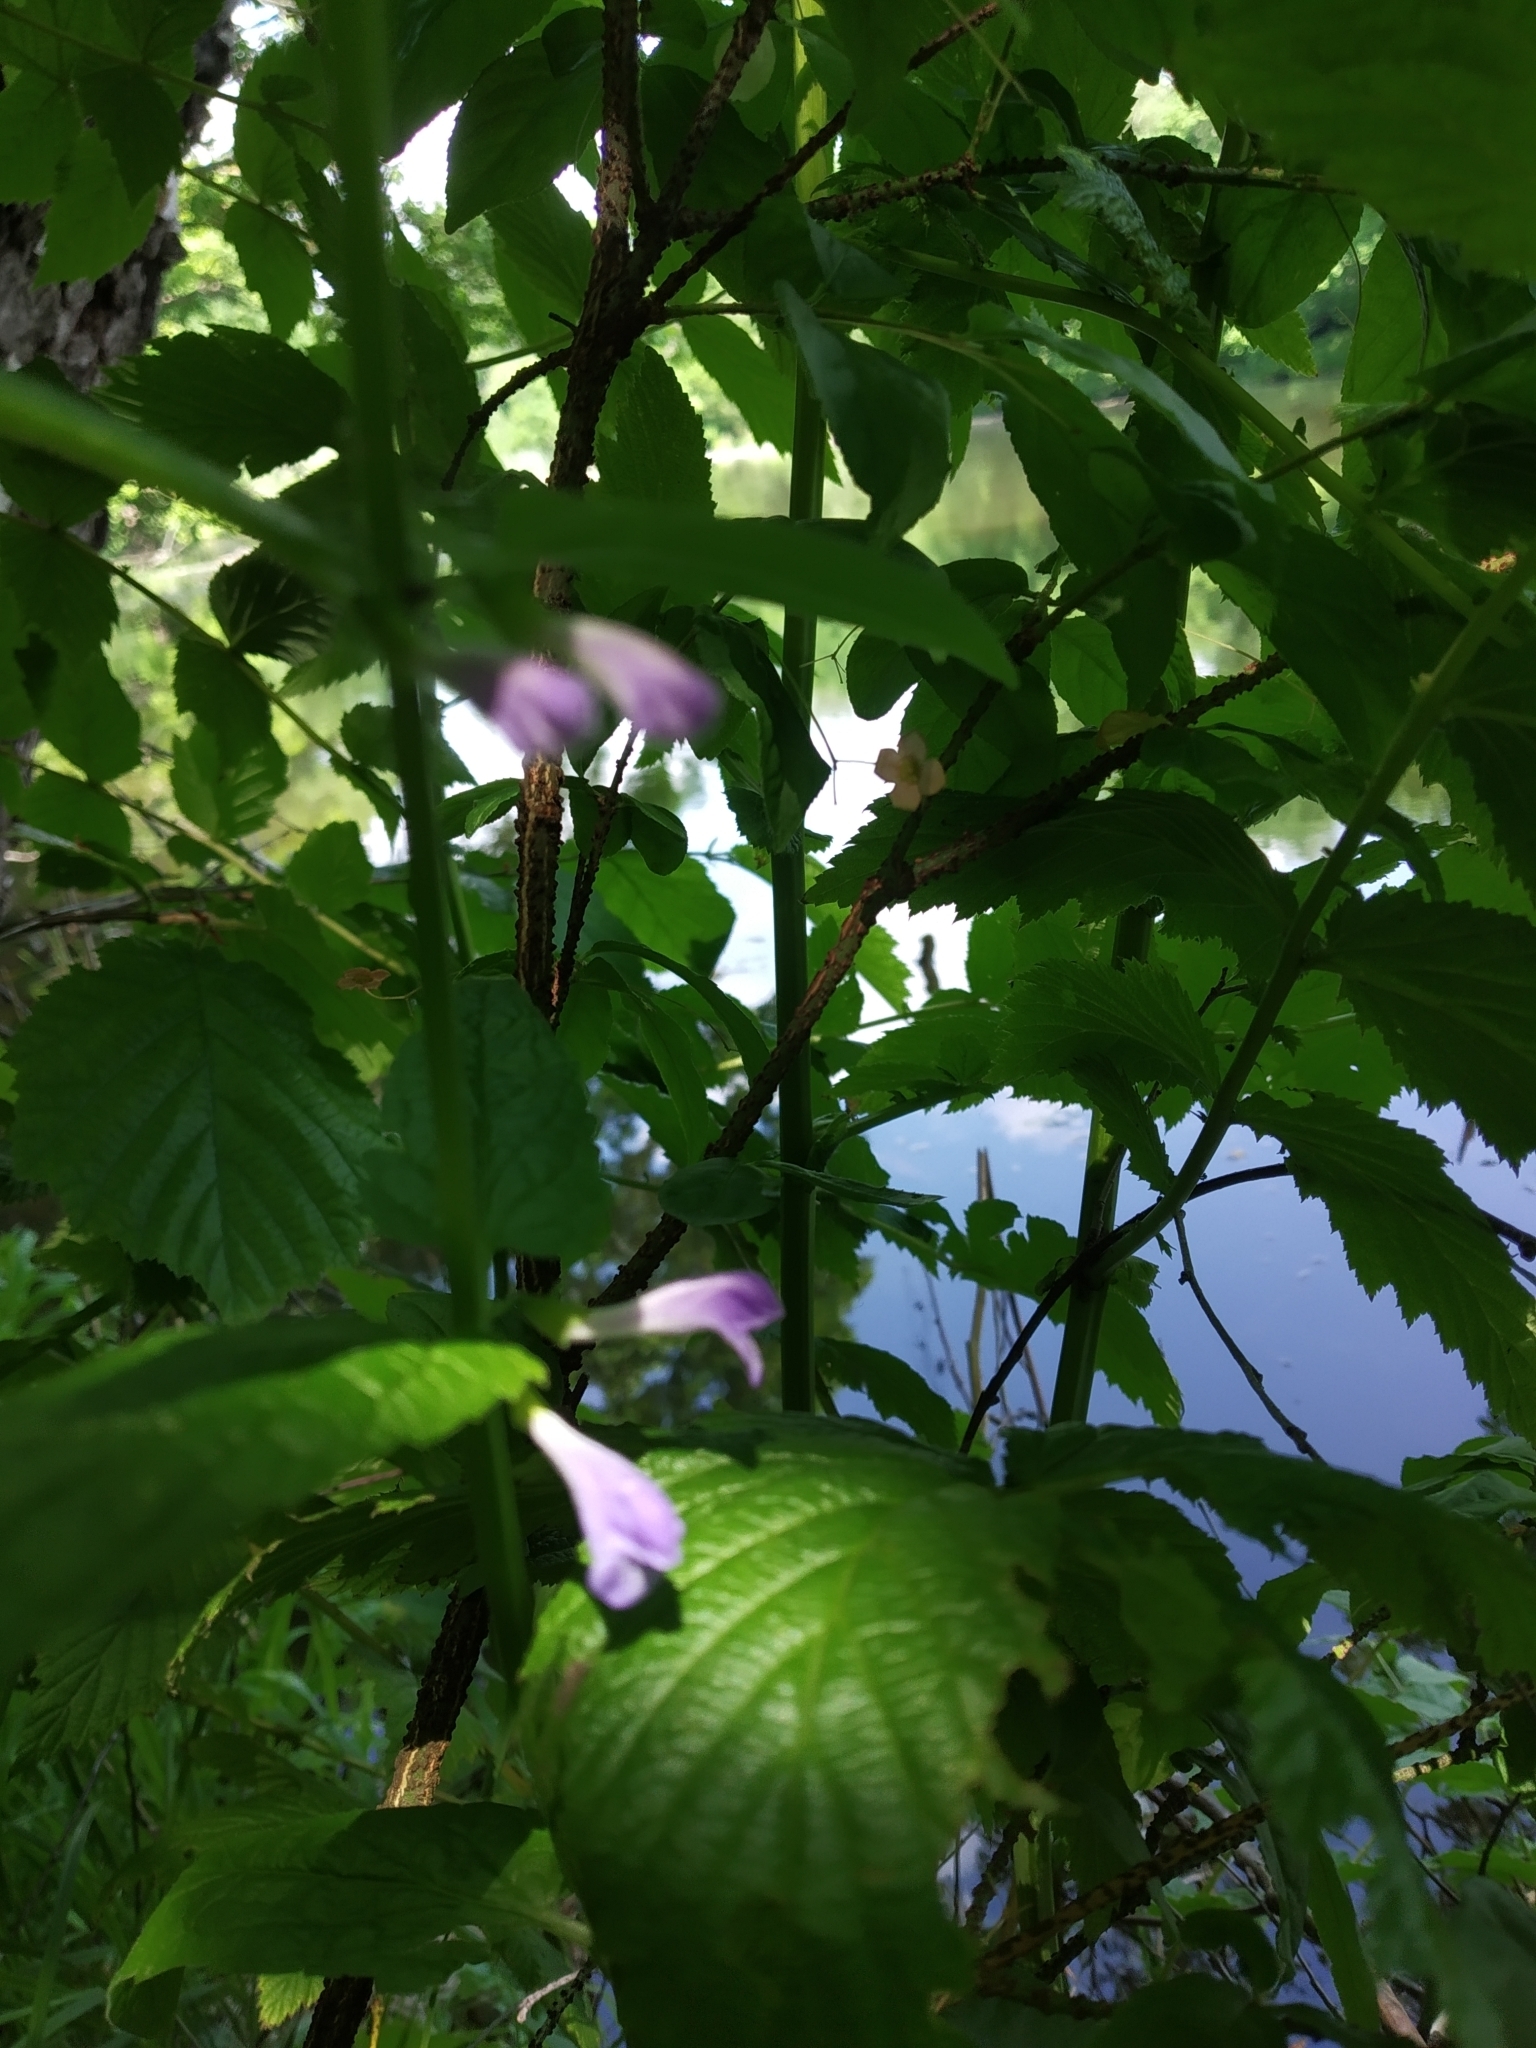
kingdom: Plantae
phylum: Tracheophyta
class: Magnoliopsida
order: Lamiales
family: Lamiaceae
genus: Scutellaria
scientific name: Scutellaria galericulata
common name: Skullcap
